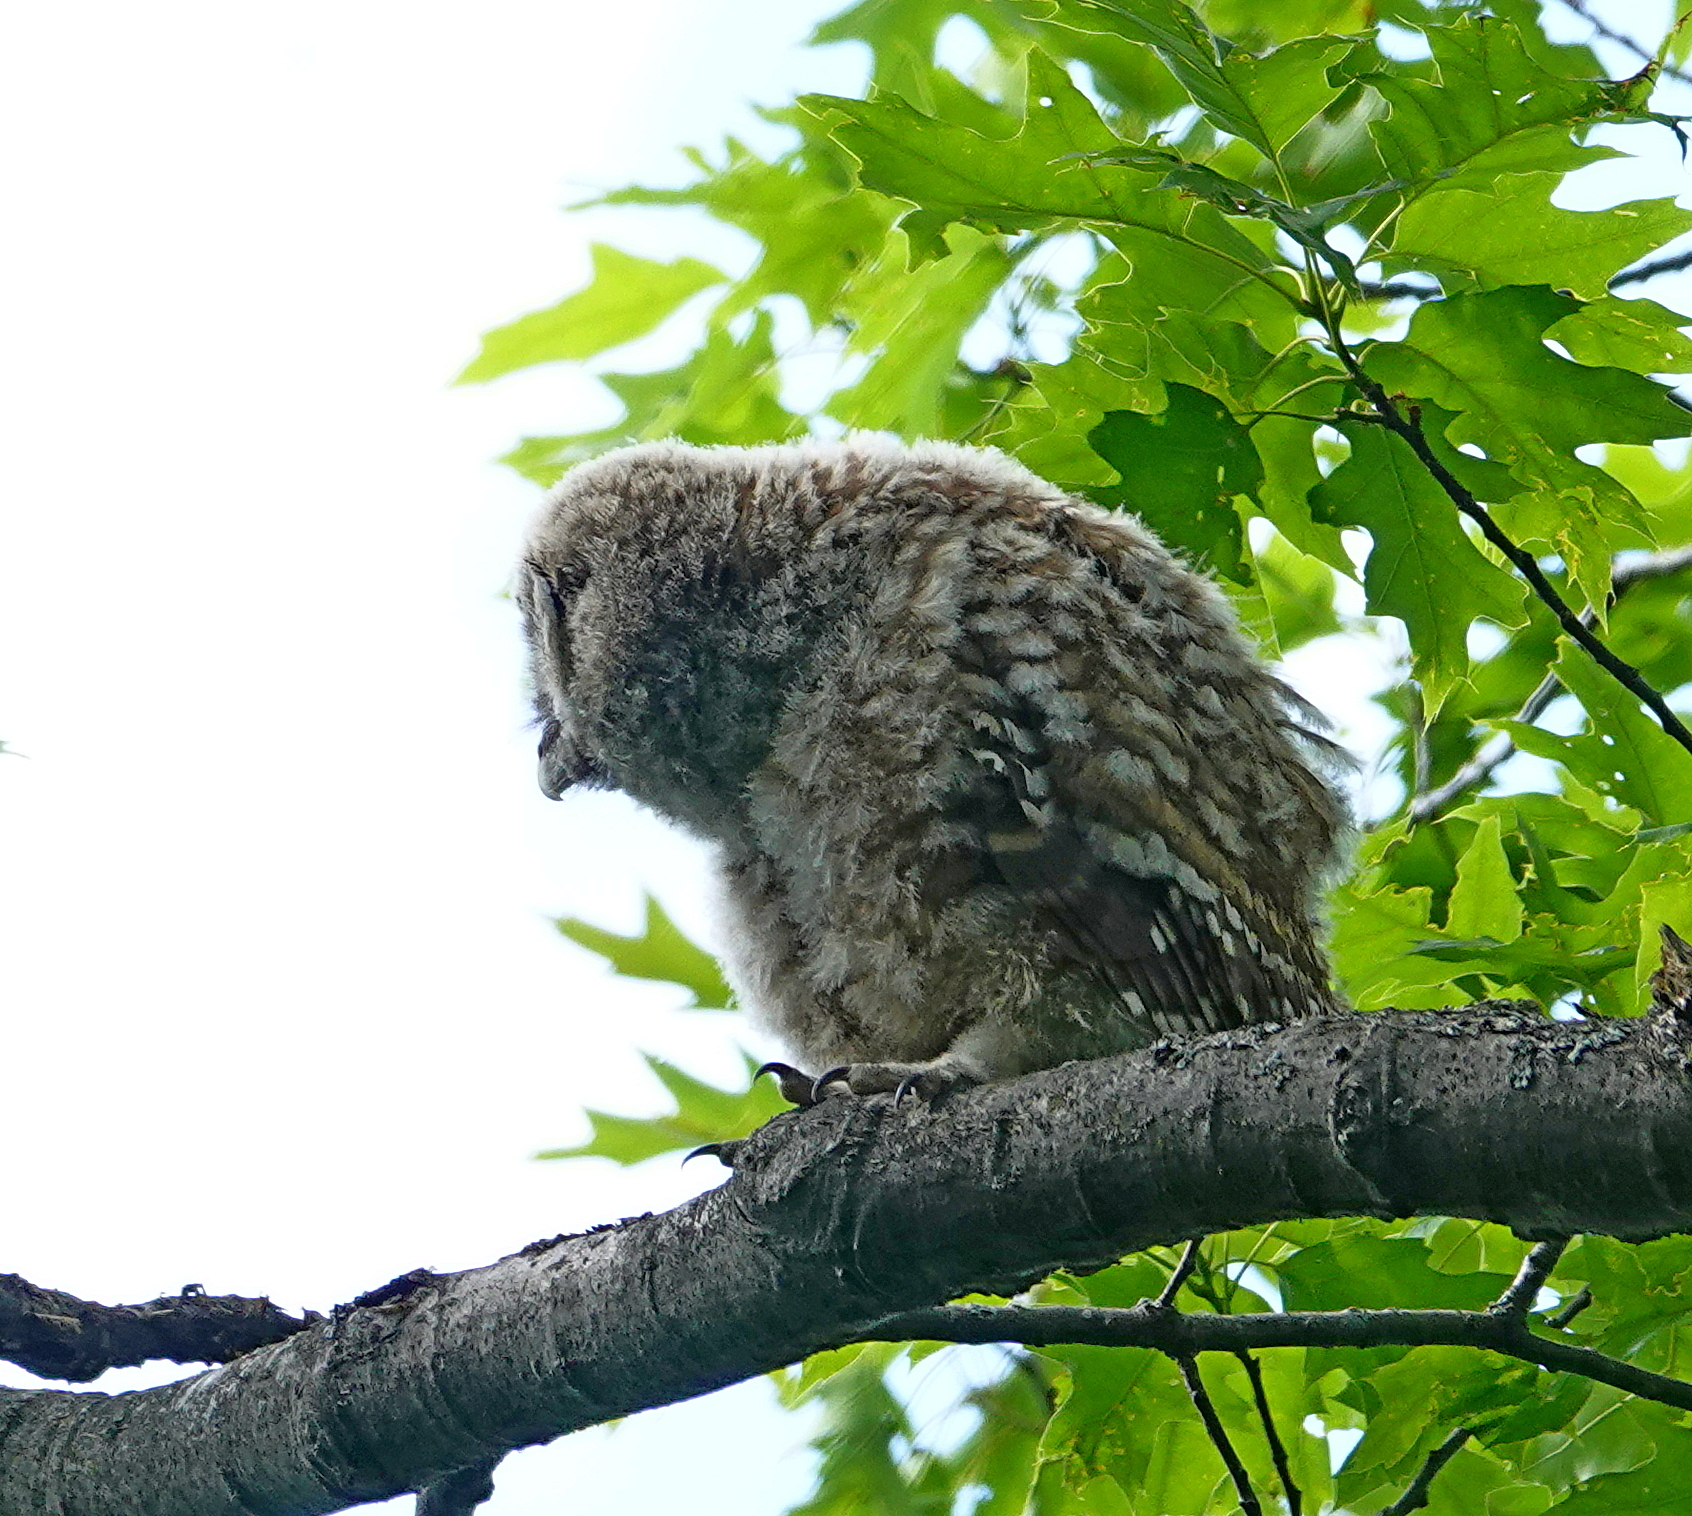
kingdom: Animalia
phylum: Chordata
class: Aves
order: Strigiformes
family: Strigidae
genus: Strix
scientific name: Strix varia
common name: Barred owl
